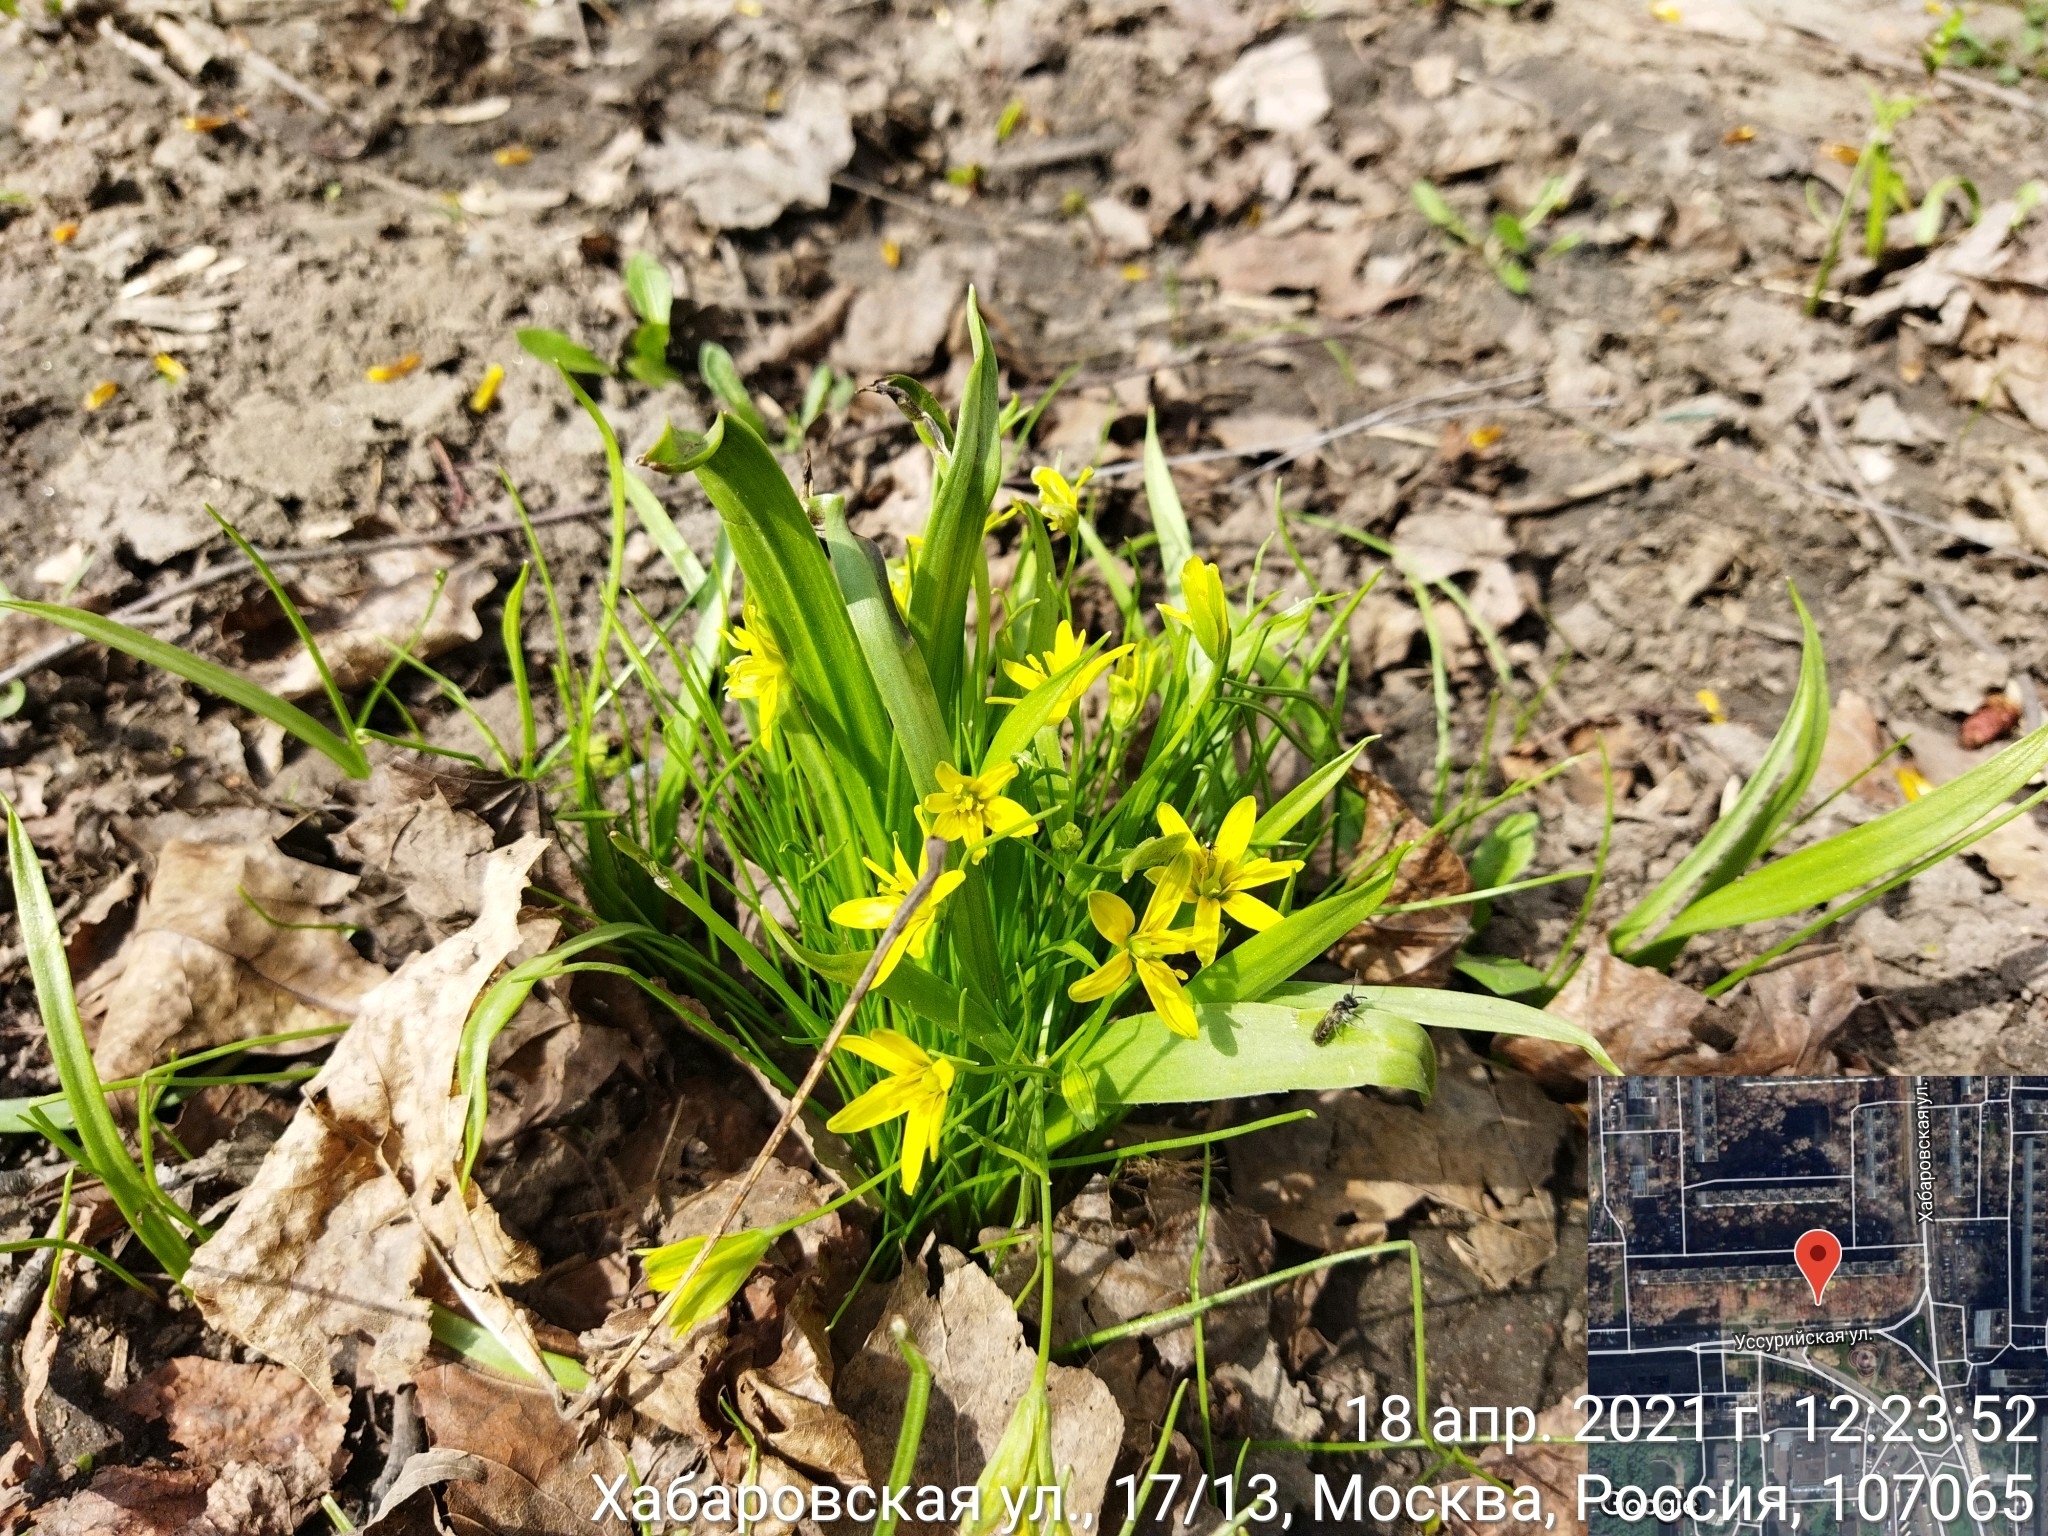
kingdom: Plantae
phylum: Tracheophyta
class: Liliopsida
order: Liliales
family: Liliaceae
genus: Gagea
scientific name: Gagea lutea
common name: Yellow star-of-bethlehem
